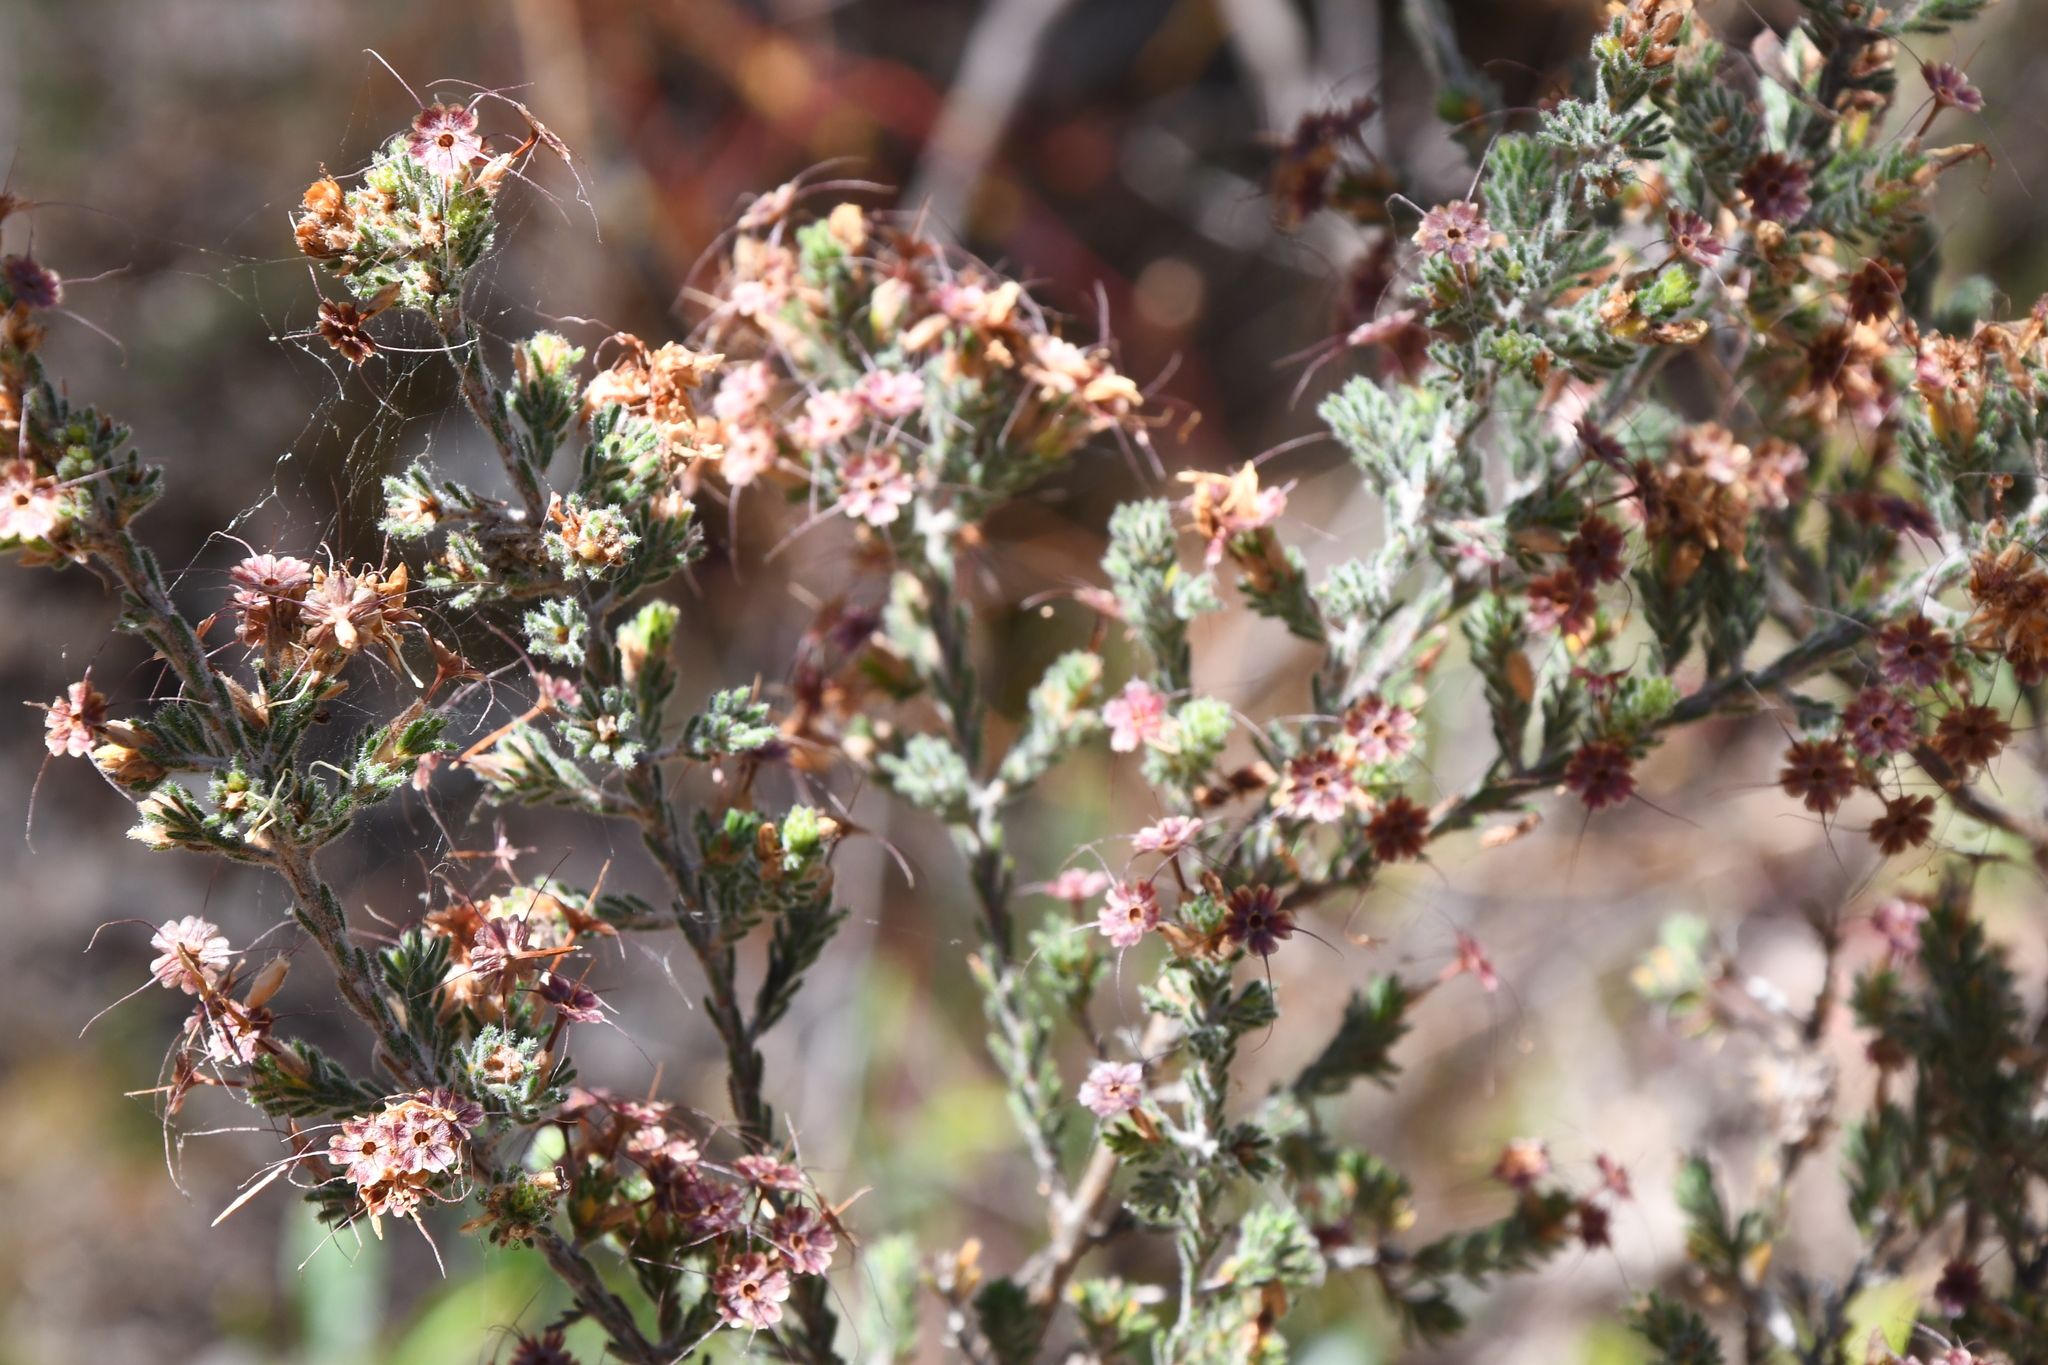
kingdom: Plantae
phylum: Tracheophyta
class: Magnoliopsida
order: Myrtales
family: Myrtaceae
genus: Calytrix
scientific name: Calytrix tetragona
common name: Common fringe myrtle
